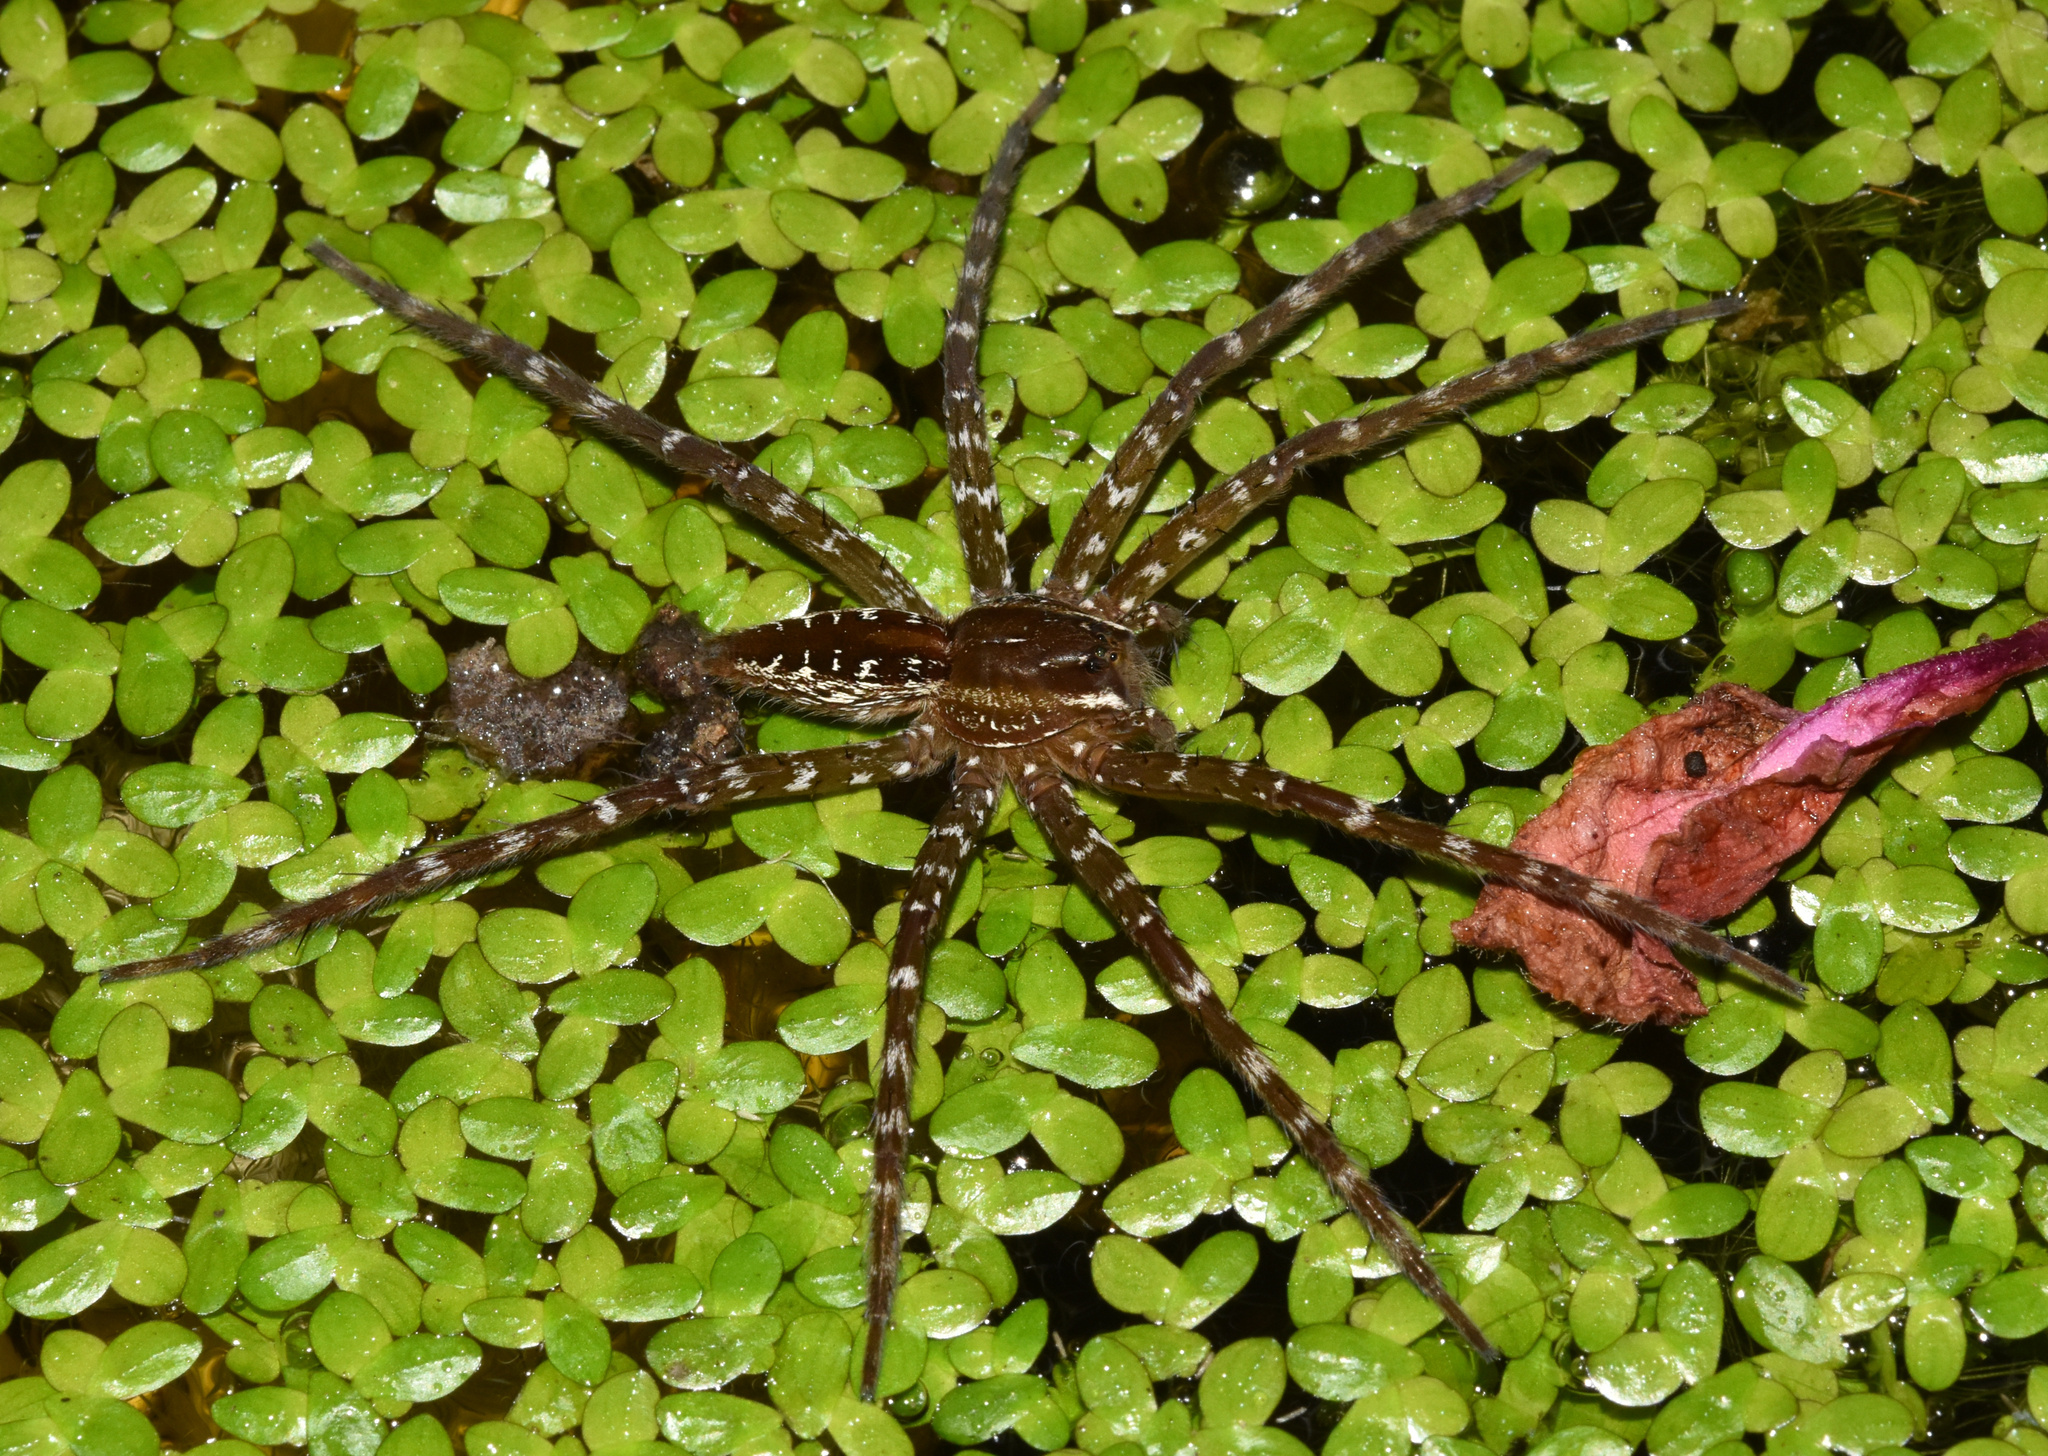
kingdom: Animalia
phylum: Arthropoda
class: Arachnida
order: Araneae
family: Pisauridae
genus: Nilus
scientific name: Nilus radiatolineatus
